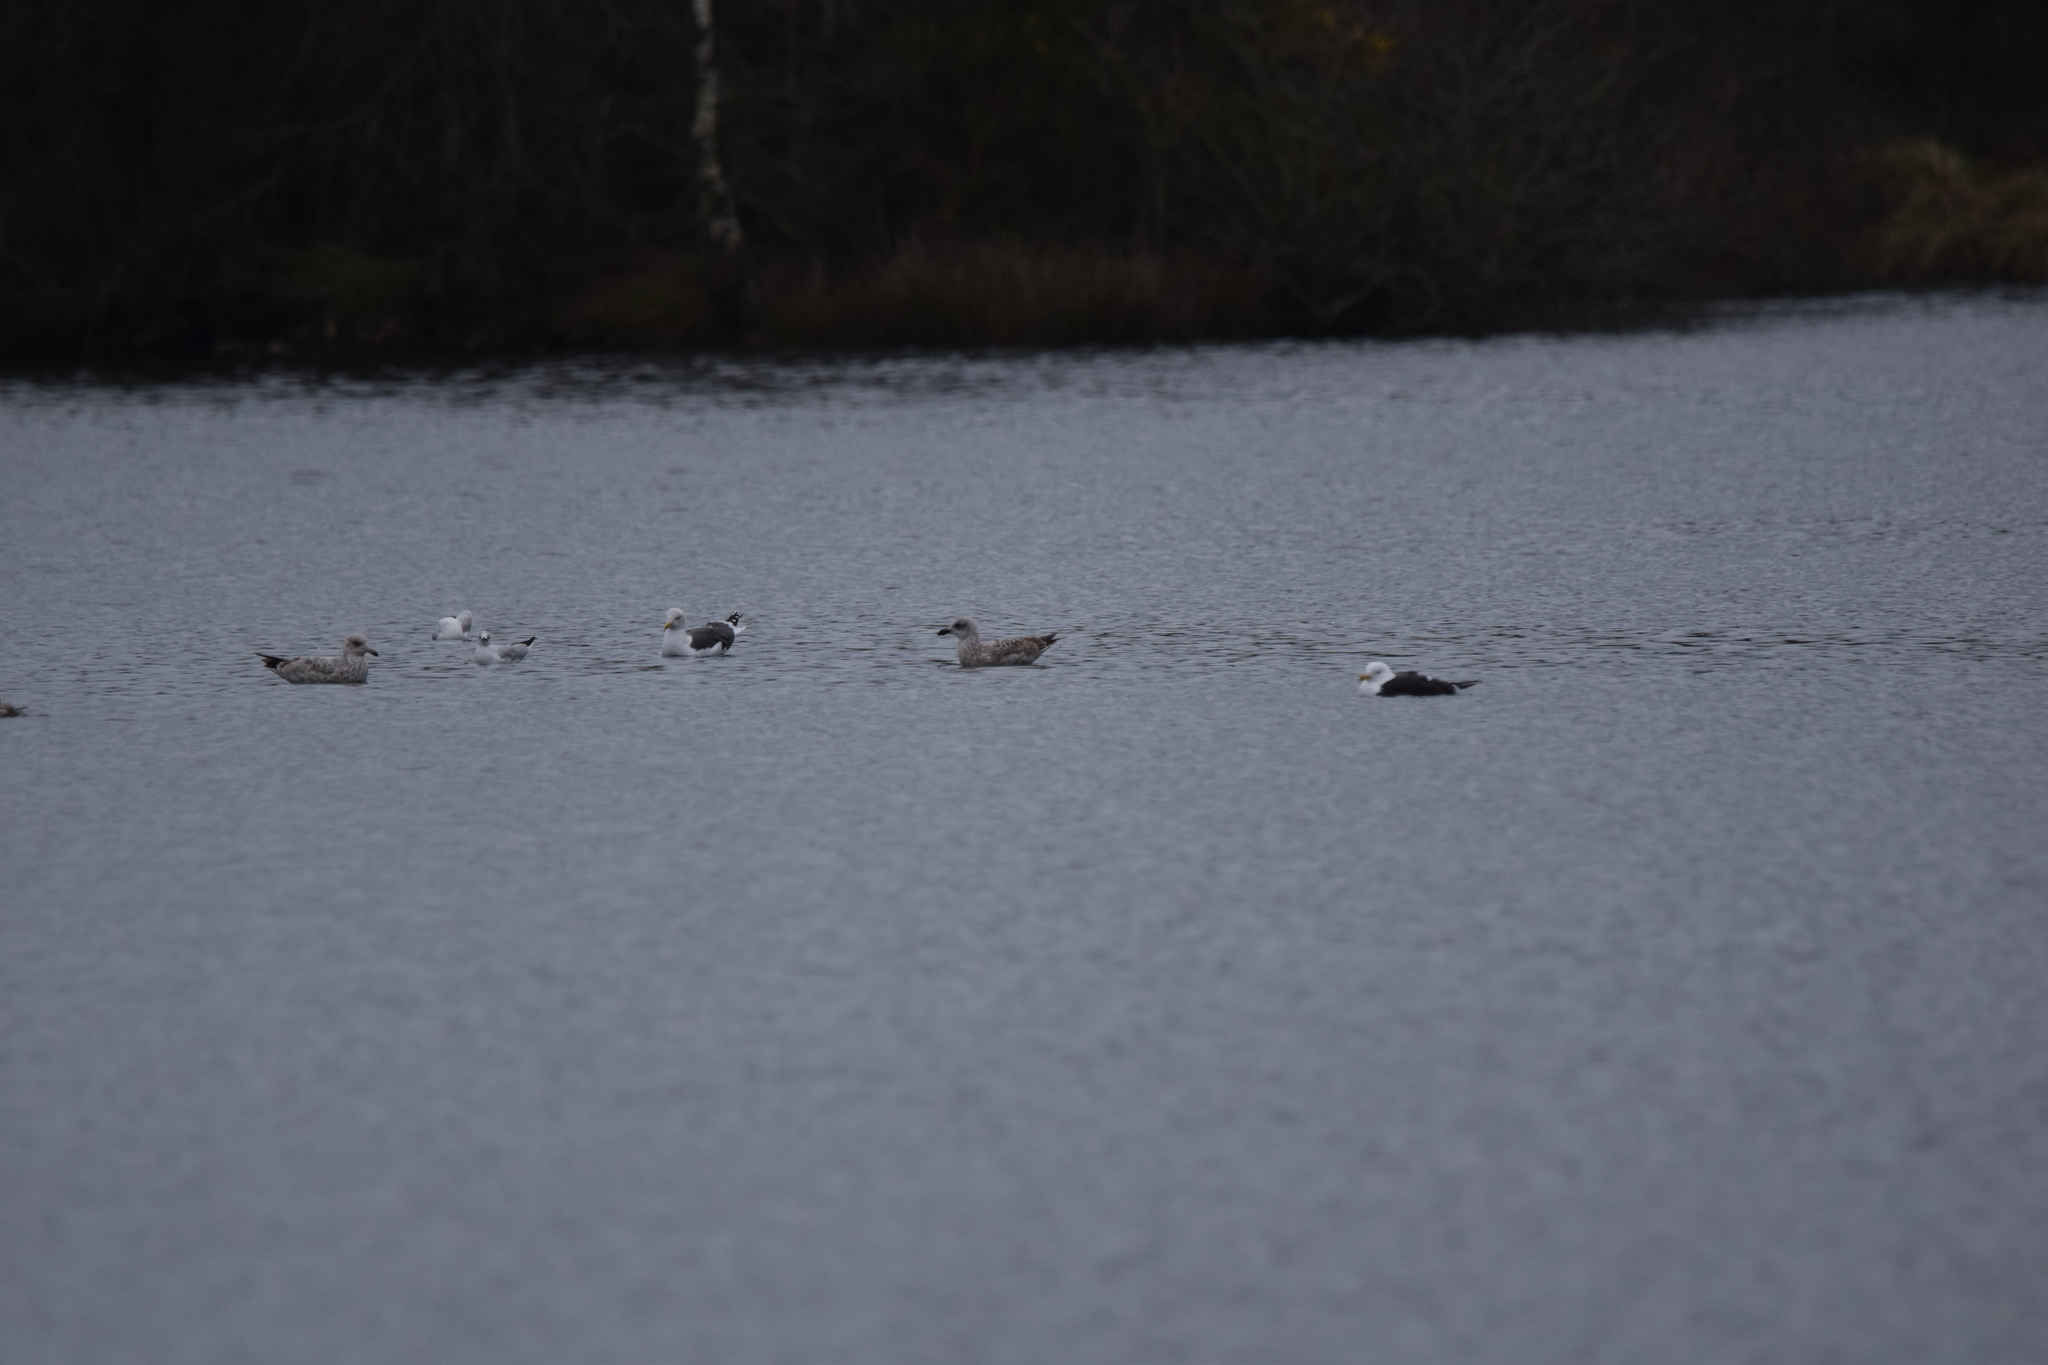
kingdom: Animalia
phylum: Chordata
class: Aves
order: Charadriiformes
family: Laridae
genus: Larus
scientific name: Larus fuscus
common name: Lesser black-backed gull
